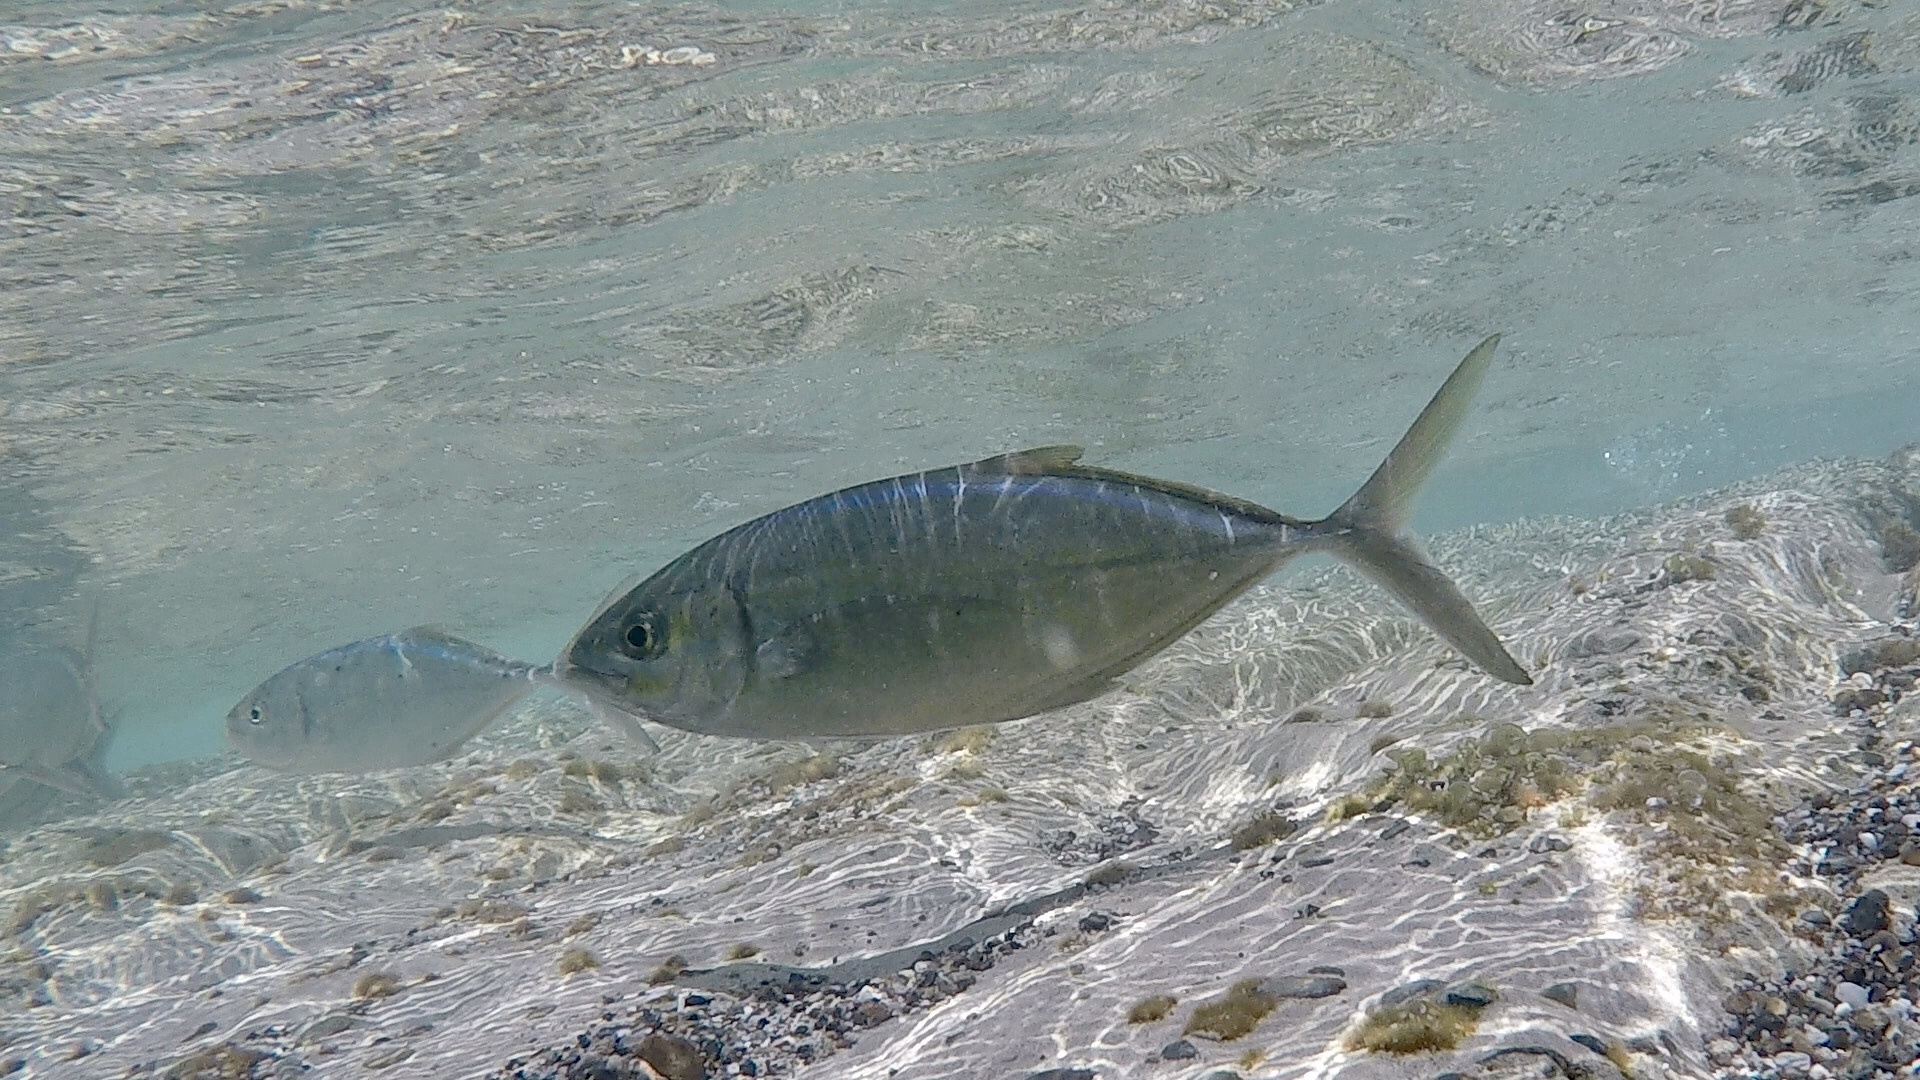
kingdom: Animalia
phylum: Chordata
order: Perciformes
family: Carangidae
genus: Caranx
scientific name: Caranx ruber
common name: Bar jack
